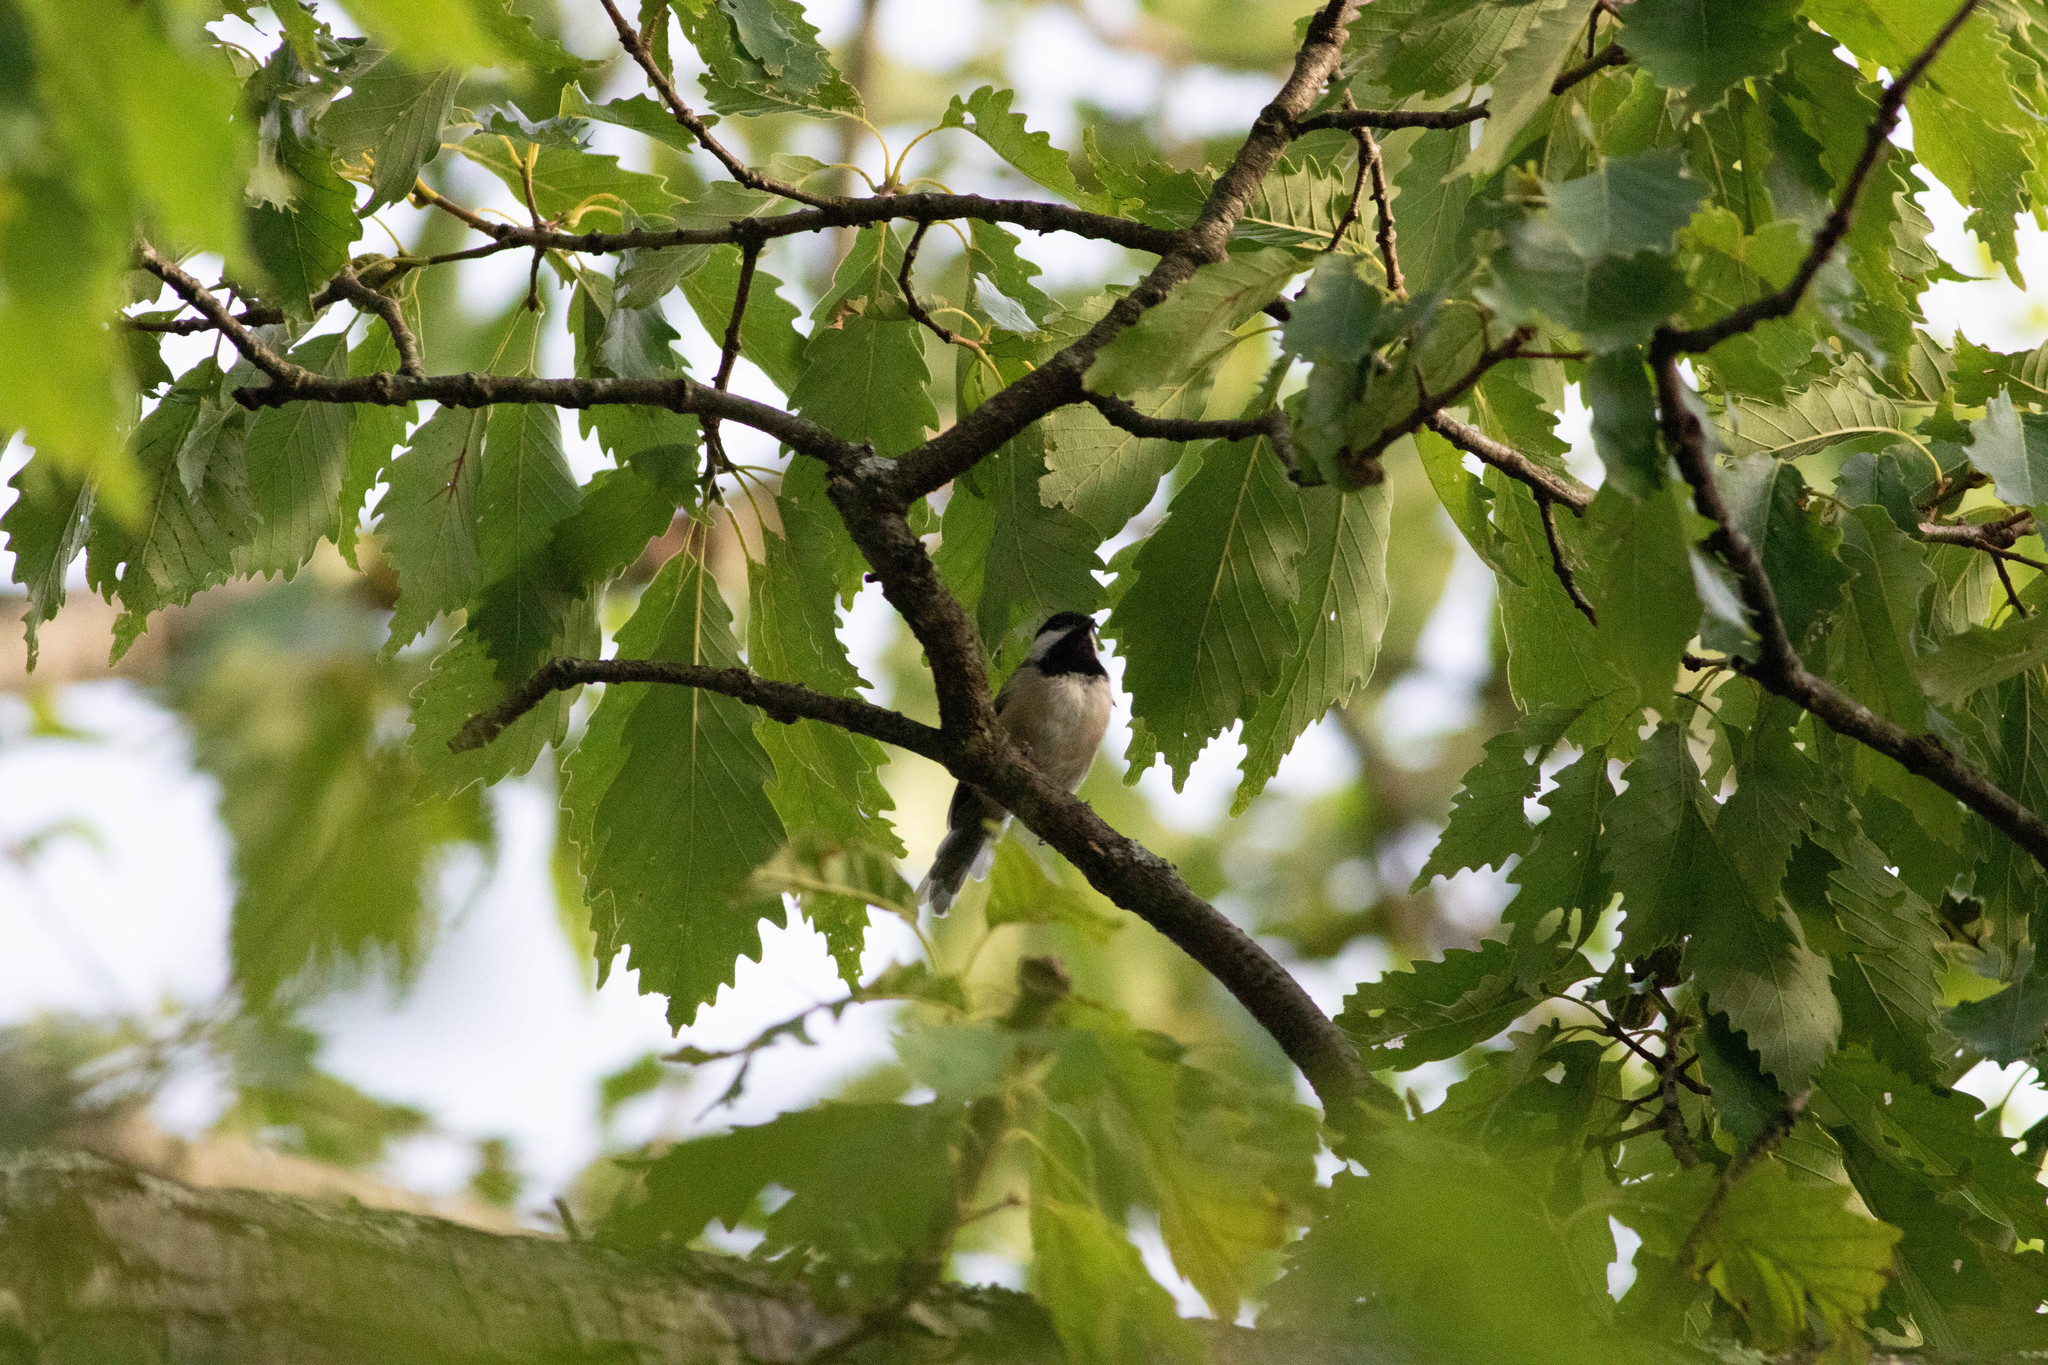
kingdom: Animalia
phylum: Chordata
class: Aves
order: Passeriformes
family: Paridae
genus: Poecile
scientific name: Poecile carolinensis
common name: Carolina chickadee
